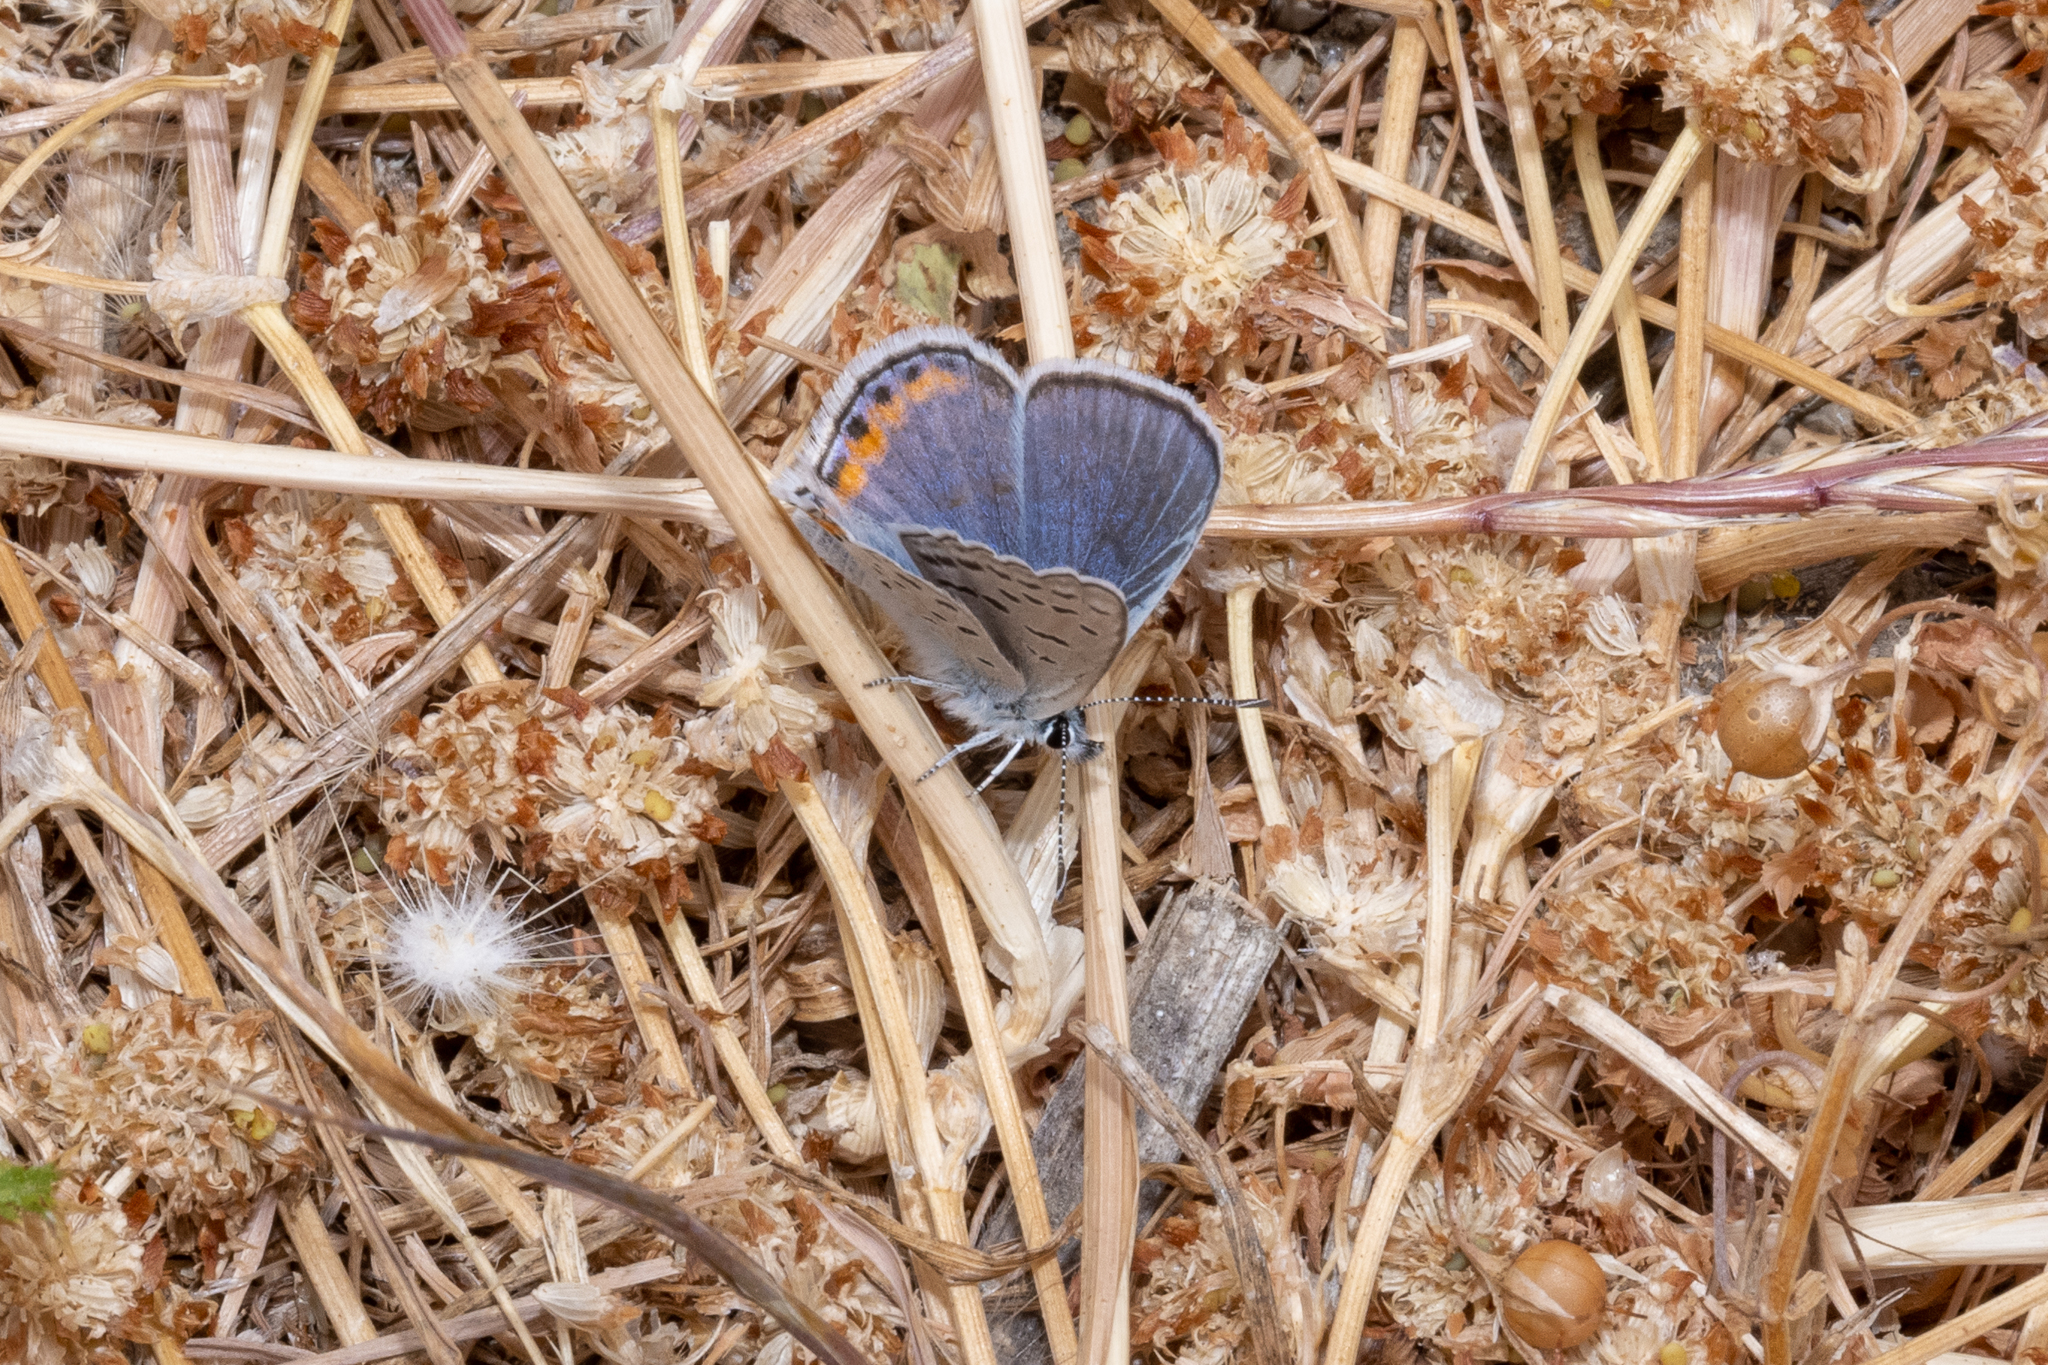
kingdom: Animalia
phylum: Arthropoda
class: Insecta
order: Lepidoptera
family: Lycaenidae
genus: Icaricia
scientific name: Icaricia acmon
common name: Acmon blue
